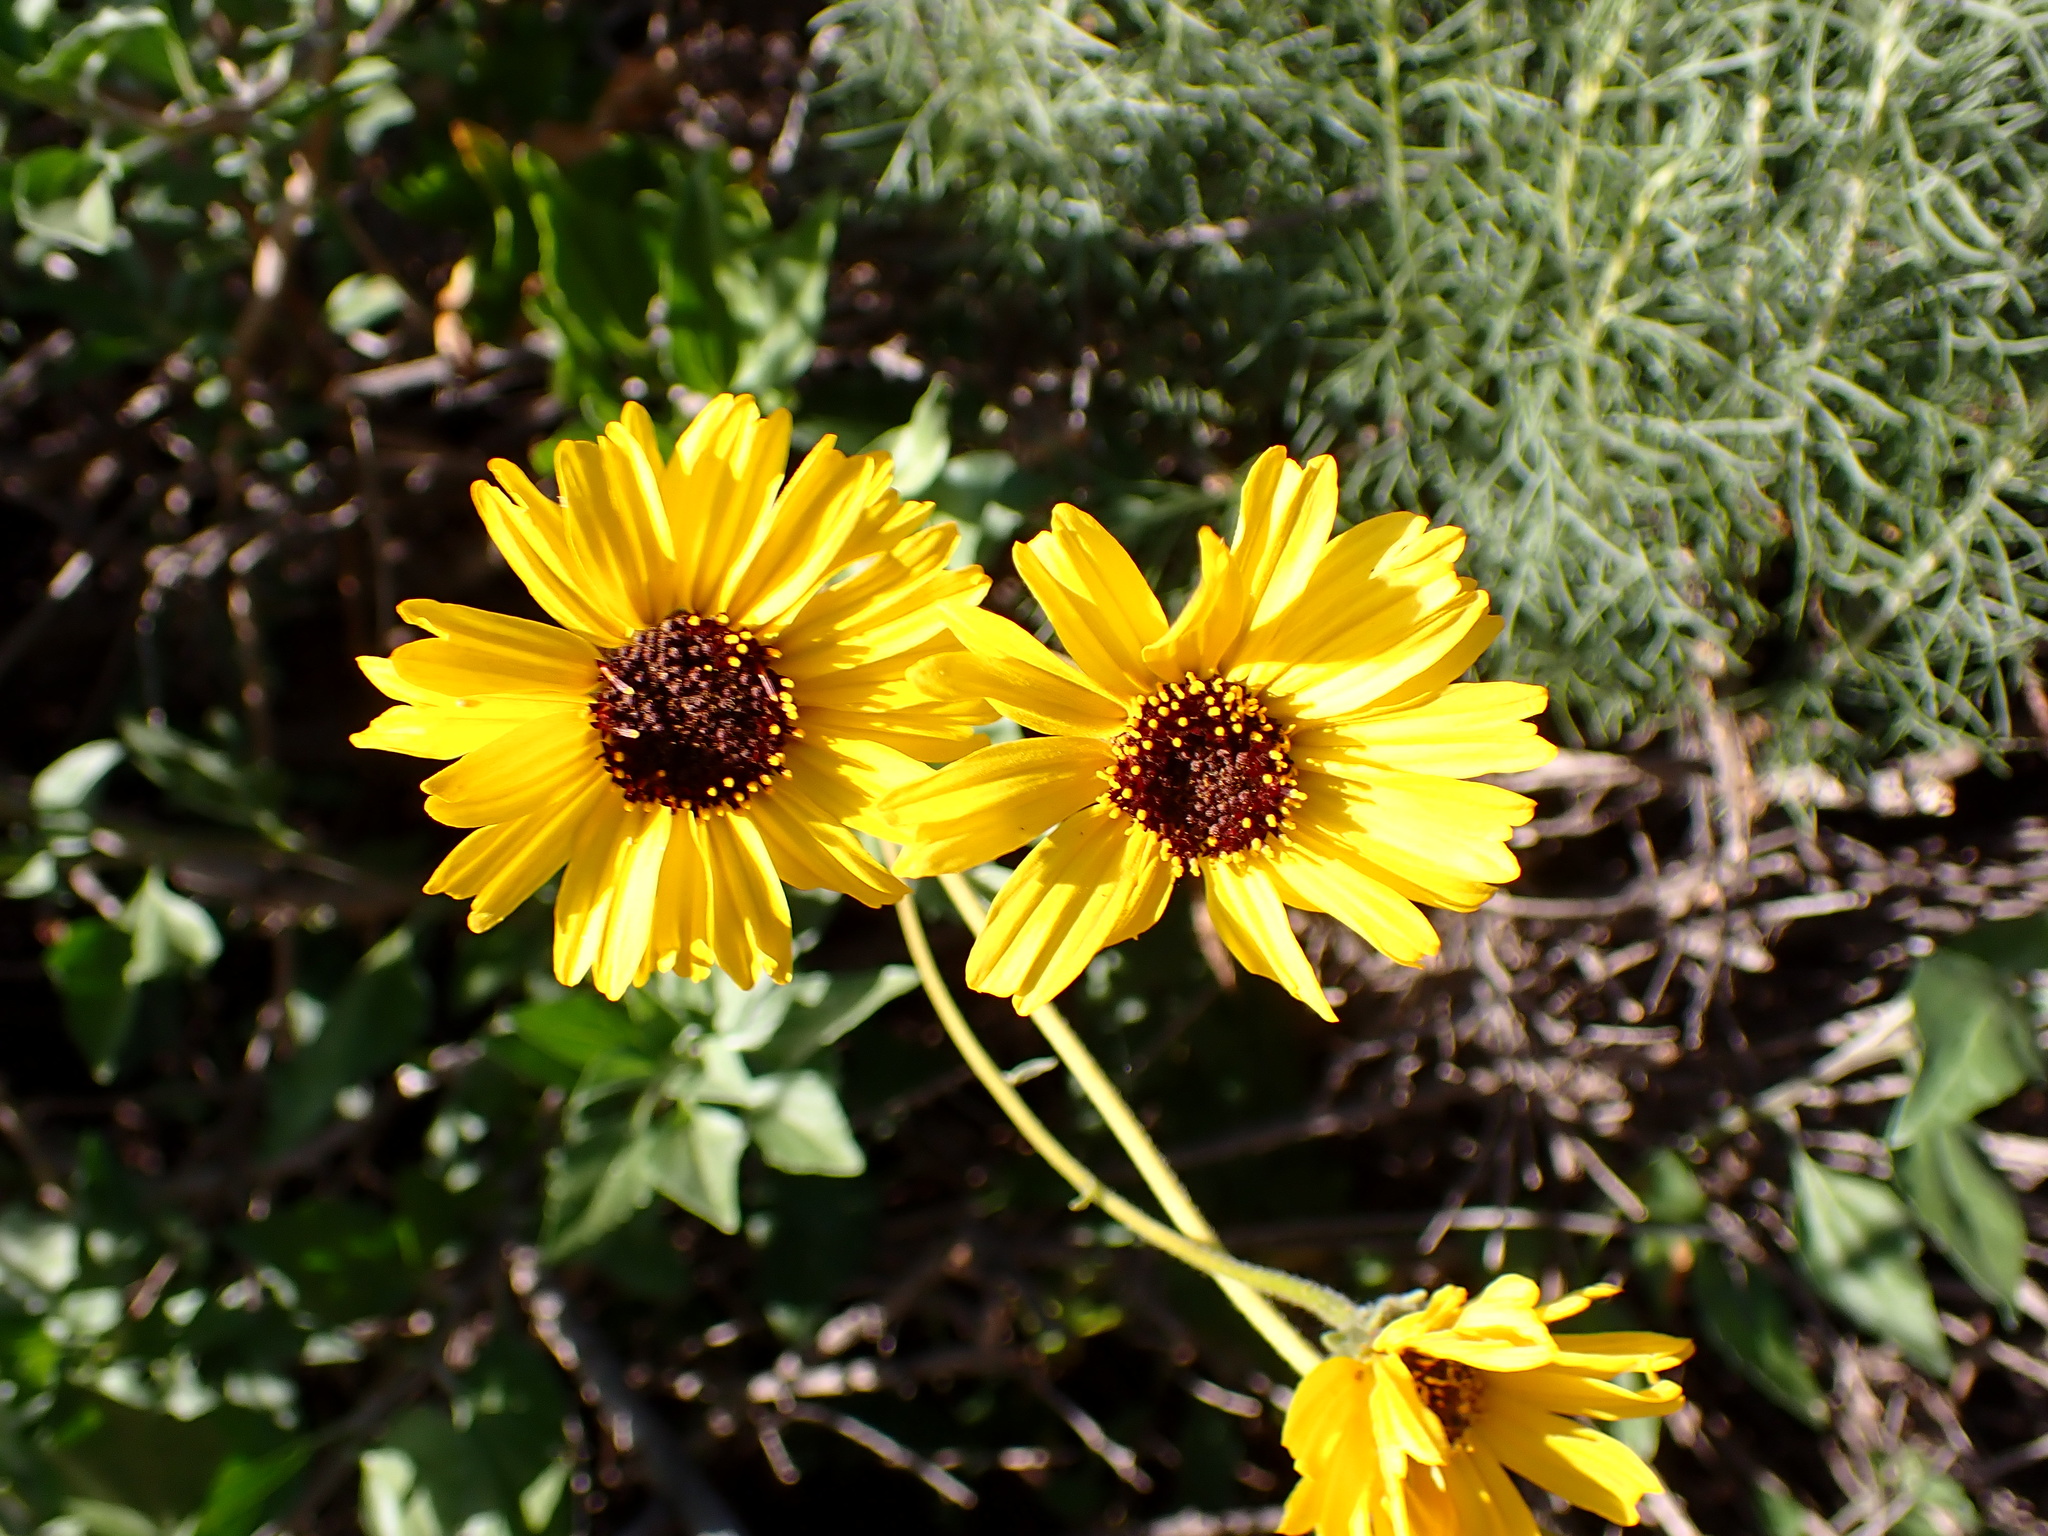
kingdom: Plantae
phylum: Tracheophyta
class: Magnoliopsida
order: Asterales
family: Asteraceae
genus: Encelia
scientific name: Encelia californica
